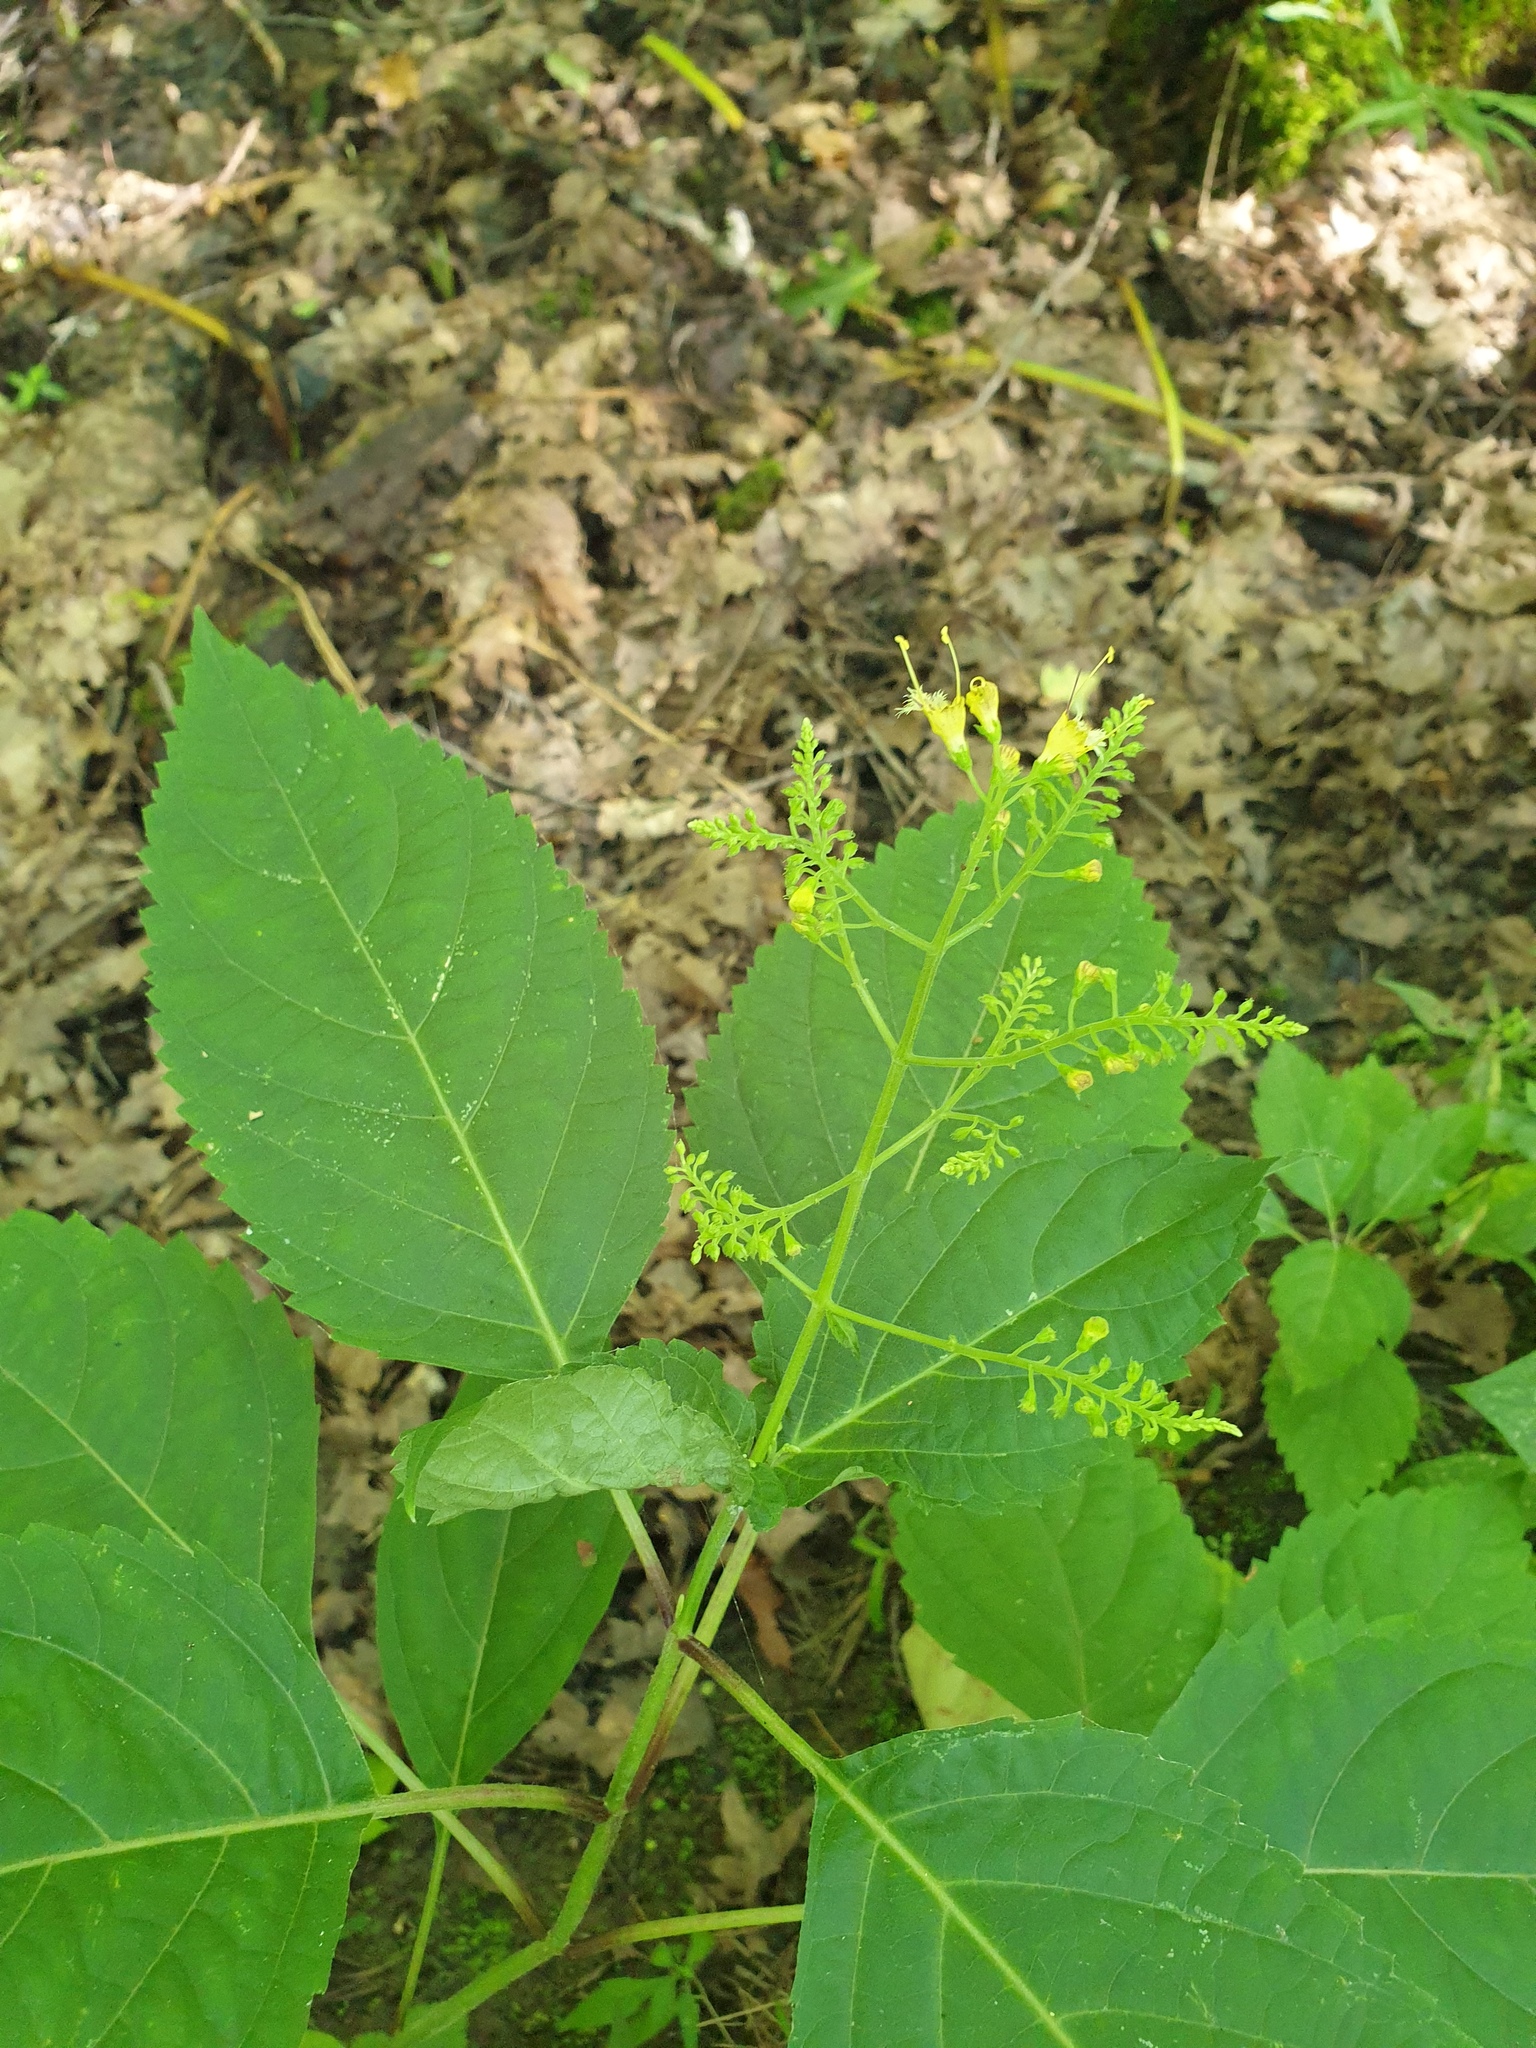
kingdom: Plantae
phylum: Tracheophyta
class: Magnoliopsida
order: Lamiales
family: Lamiaceae
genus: Collinsonia
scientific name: Collinsonia canadensis
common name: Northern horsebalm
